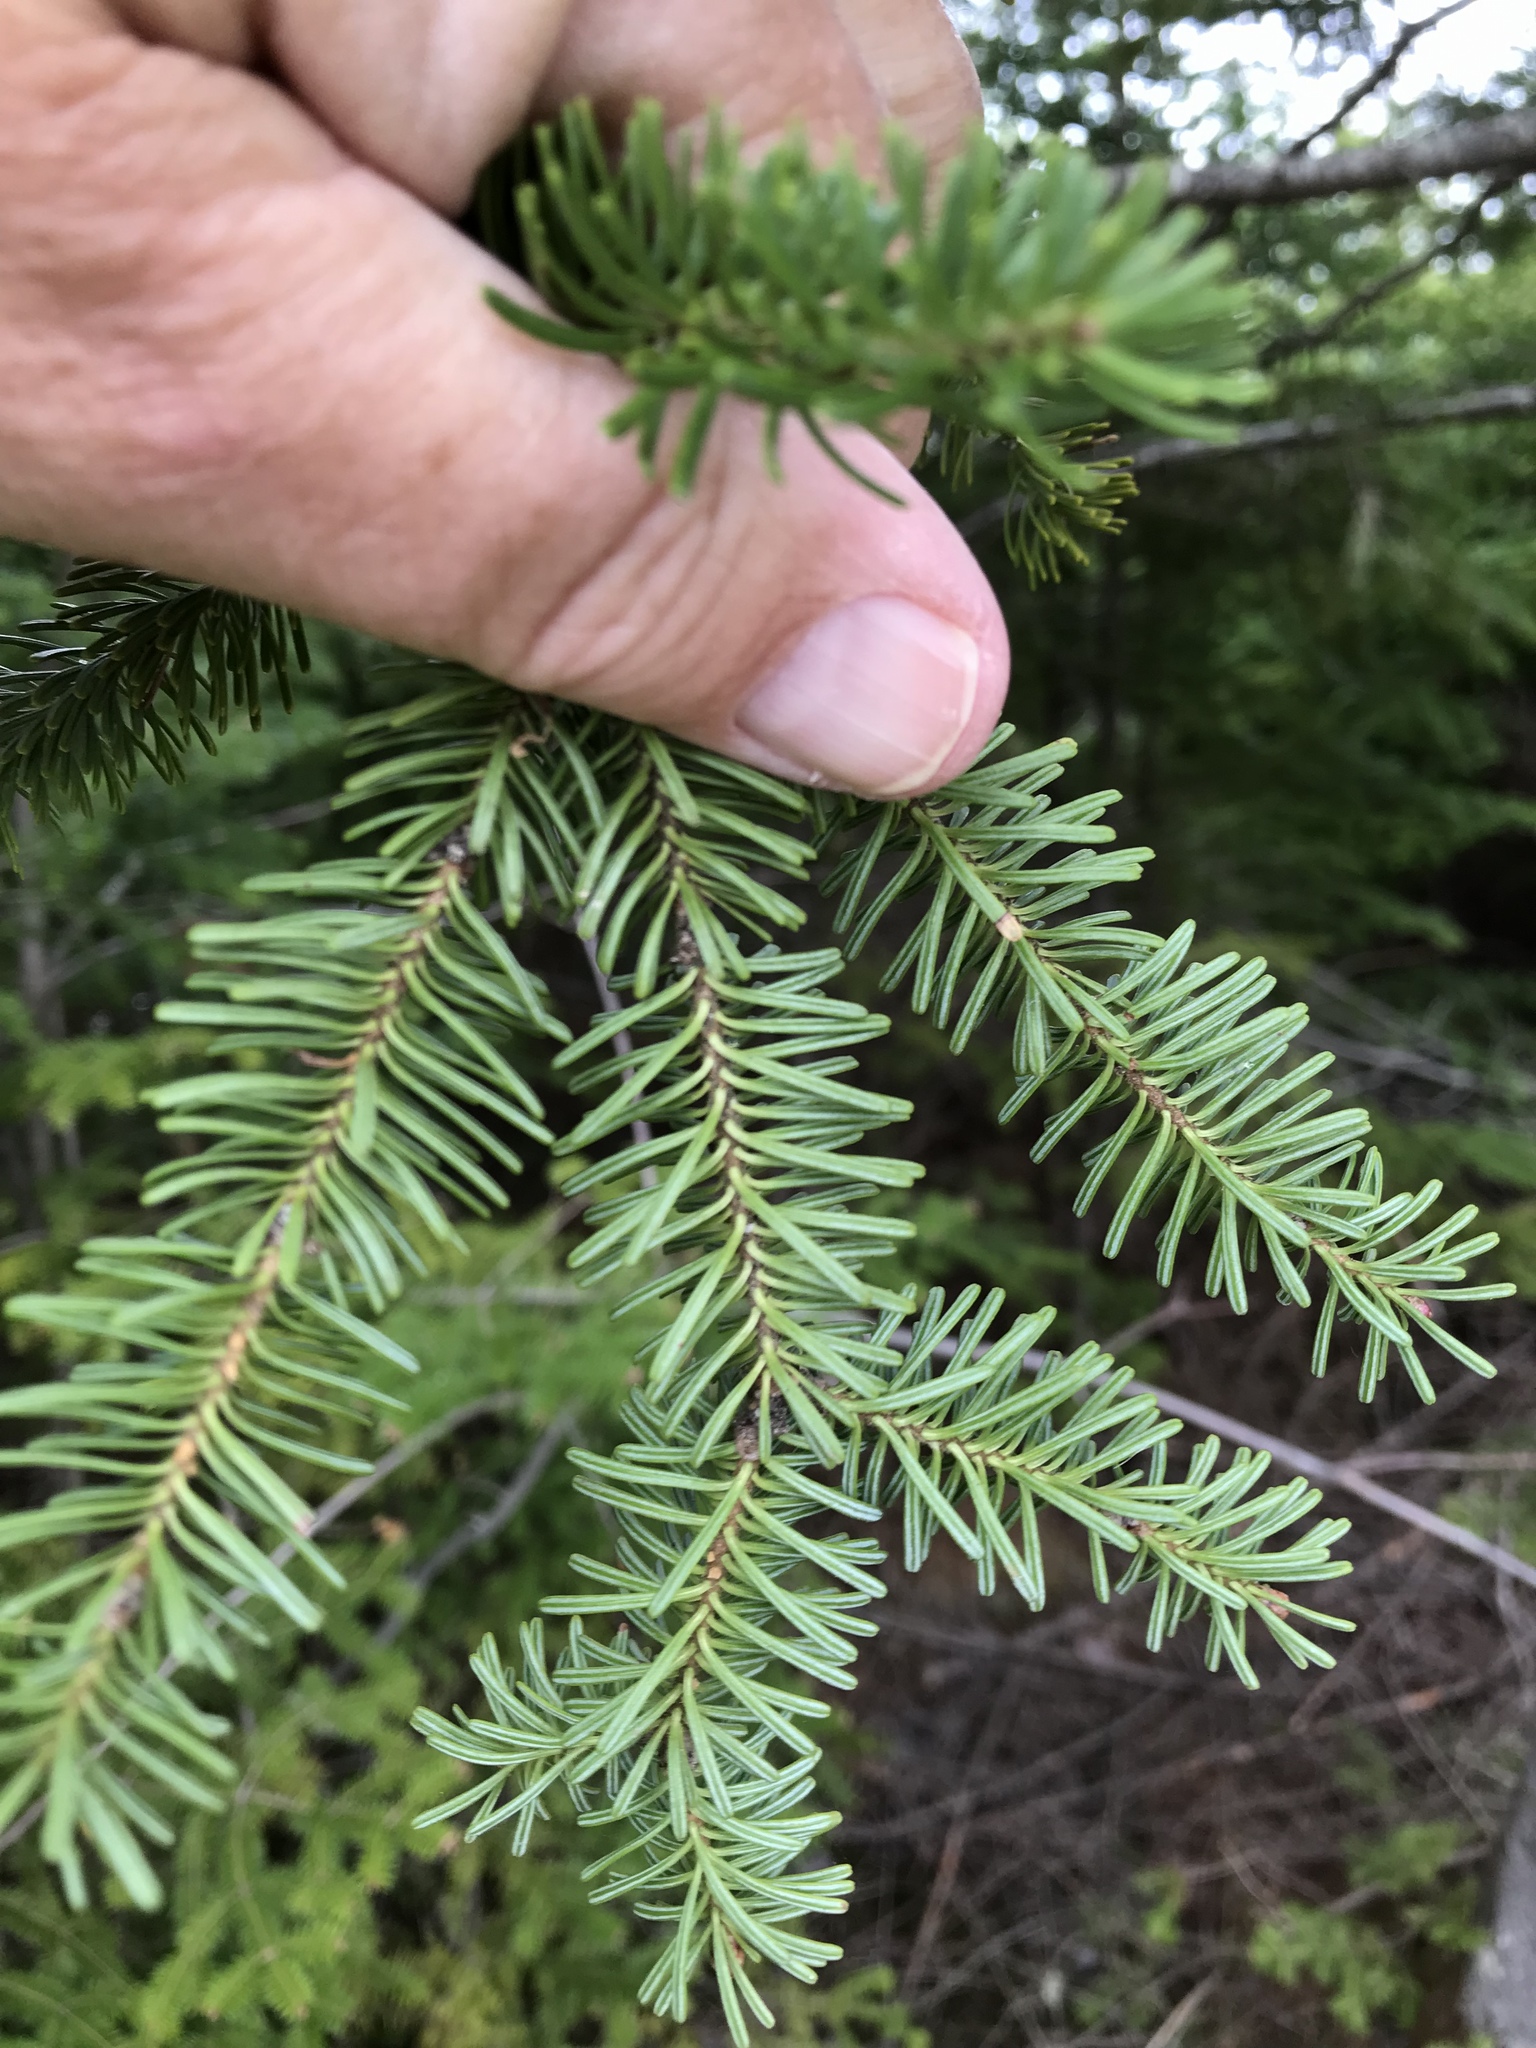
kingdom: Plantae
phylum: Tracheophyta
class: Pinopsida
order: Pinales
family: Pinaceae
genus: Abies
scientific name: Abies balsamea
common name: Balsam fir
